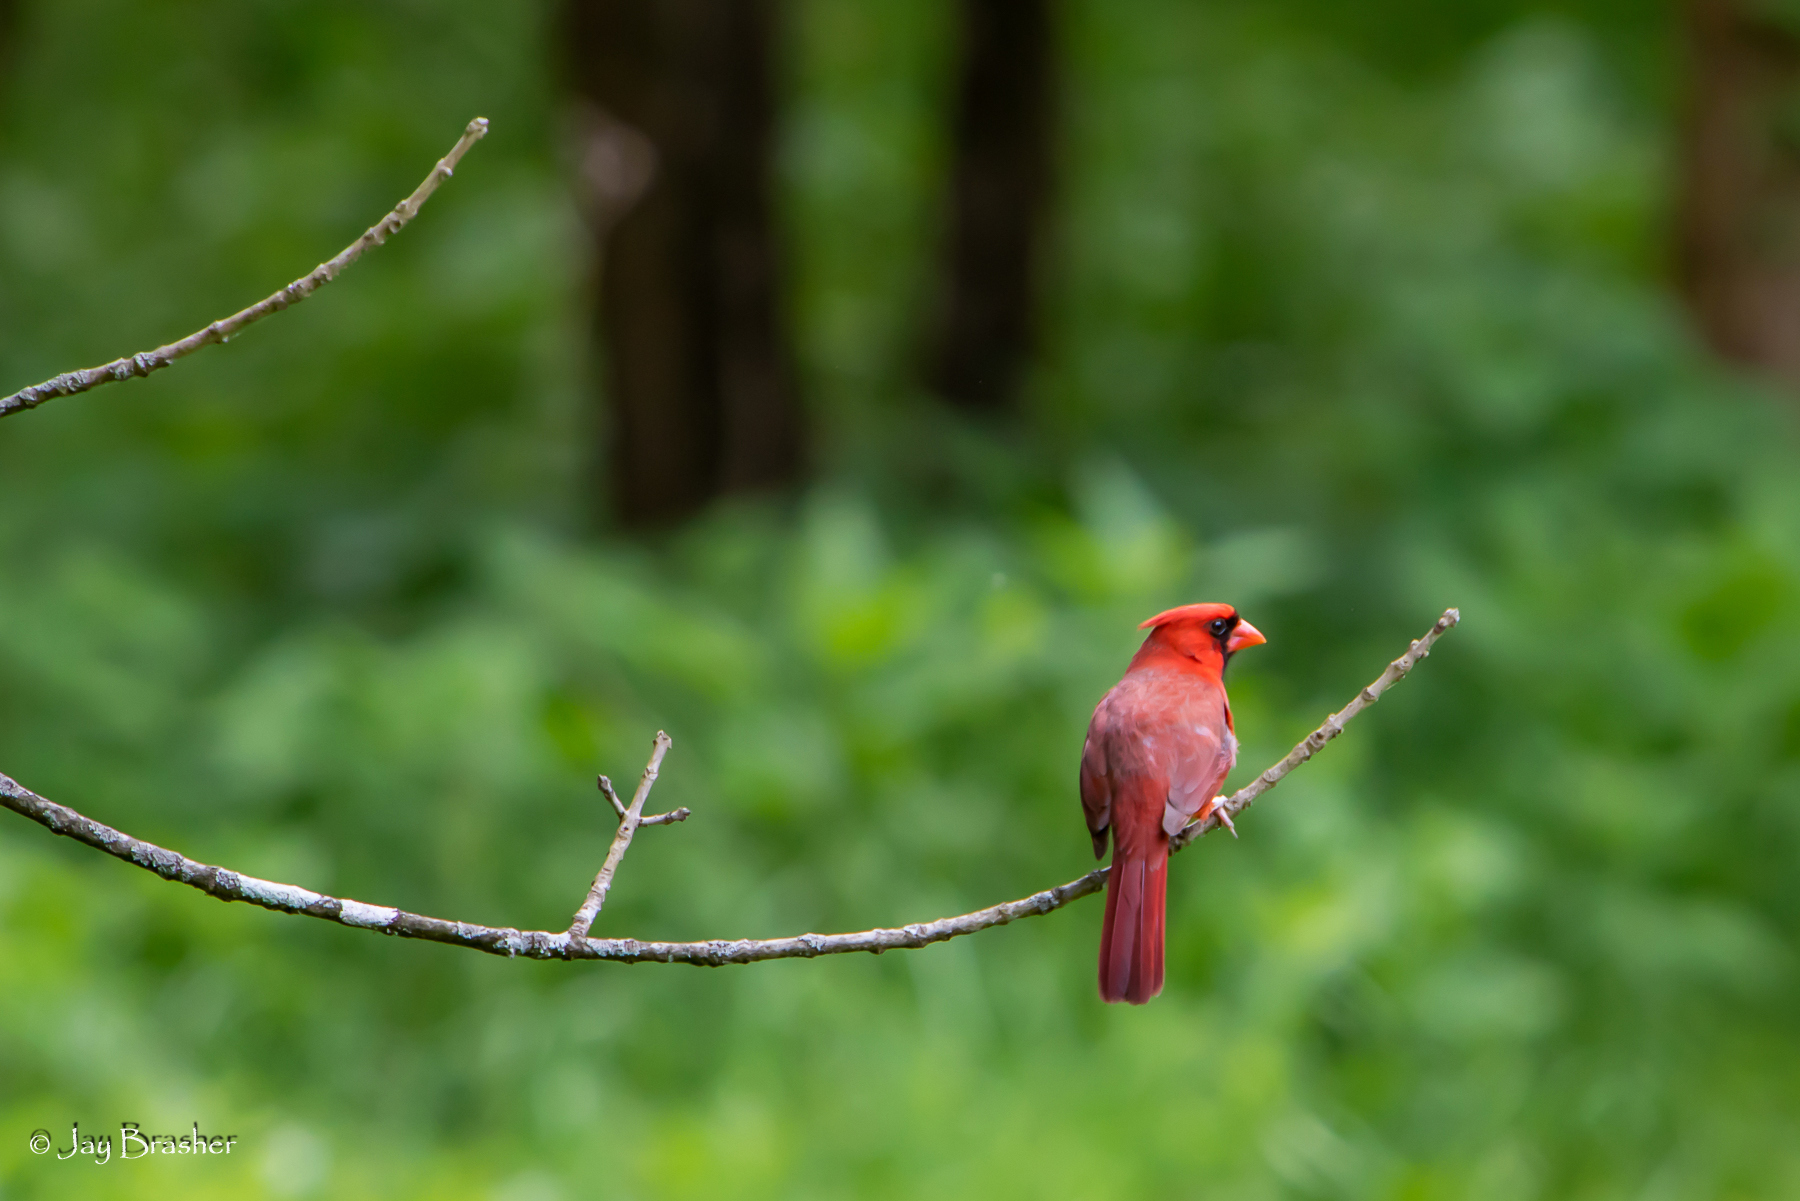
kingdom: Animalia
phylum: Chordata
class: Aves
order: Passeriformes
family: Cardinalidae
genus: Cardinalis
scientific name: Cardinalis cardinalis
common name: Northern cardinal
